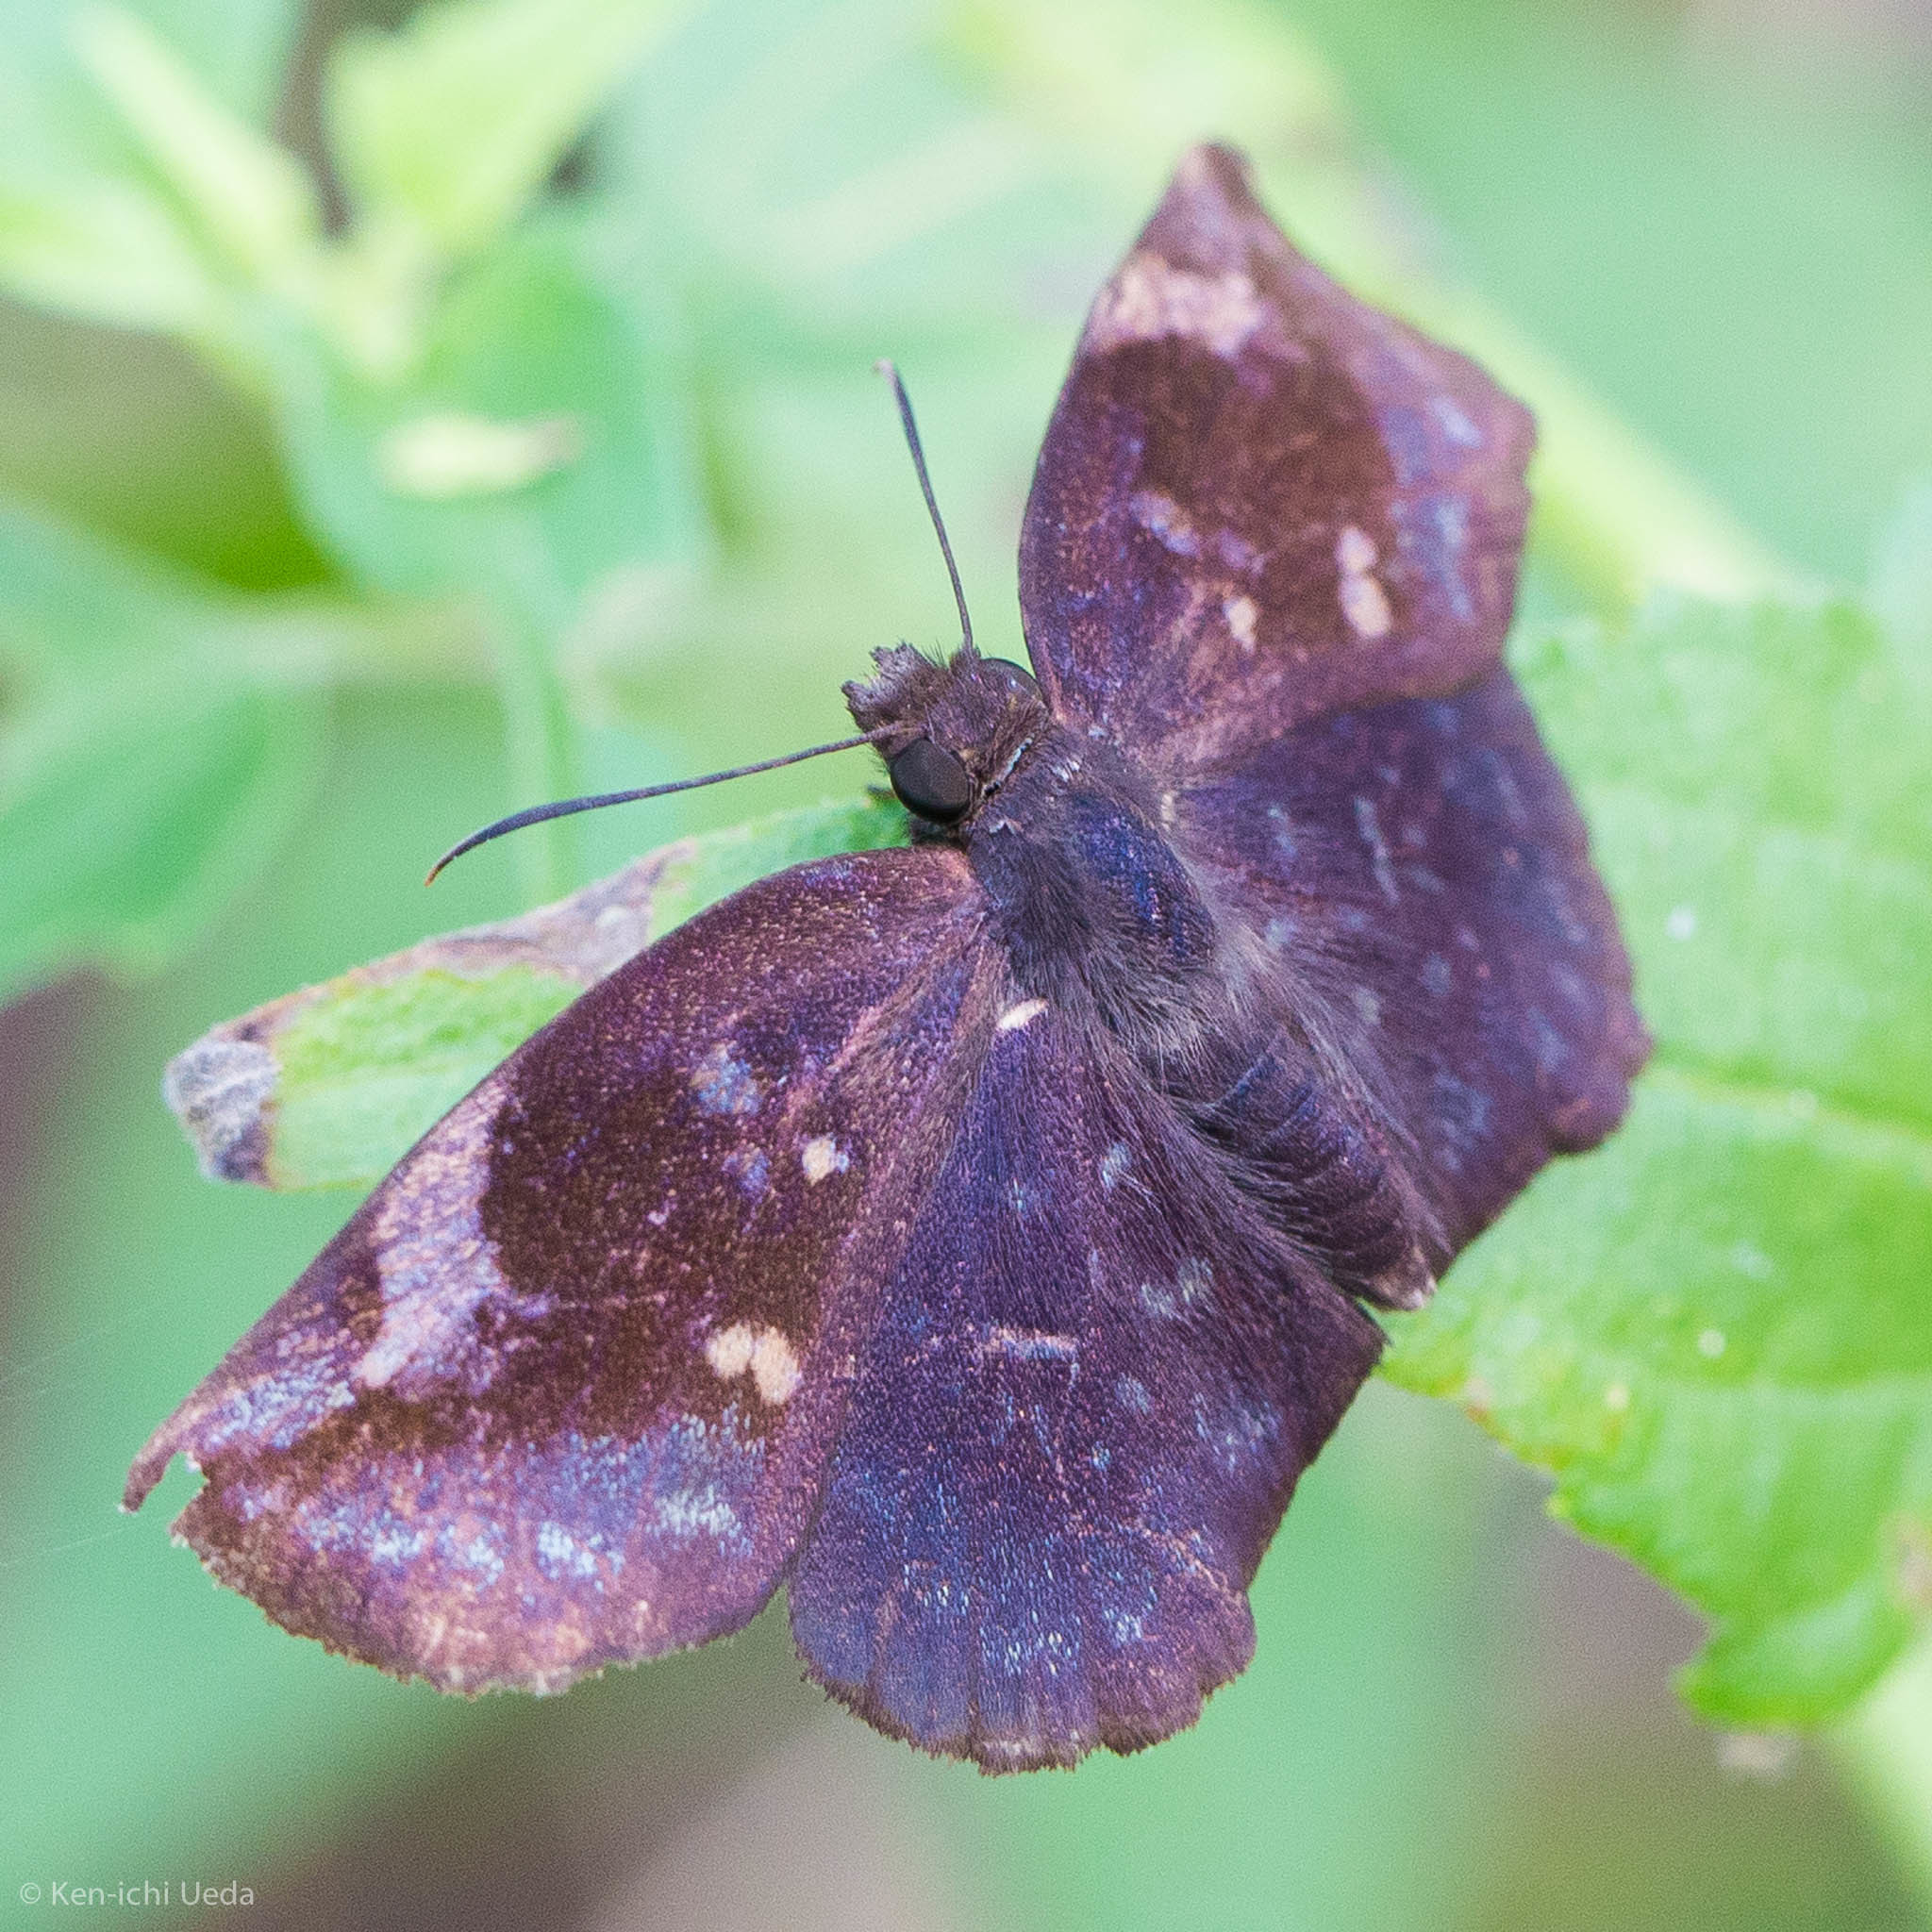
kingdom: Animalia
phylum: Arthropoda
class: Insecta
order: Lepidoptera
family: Hesperiidae
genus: Achlyodes
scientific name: Achlyodes thraso
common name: Sickle-winged skipper
